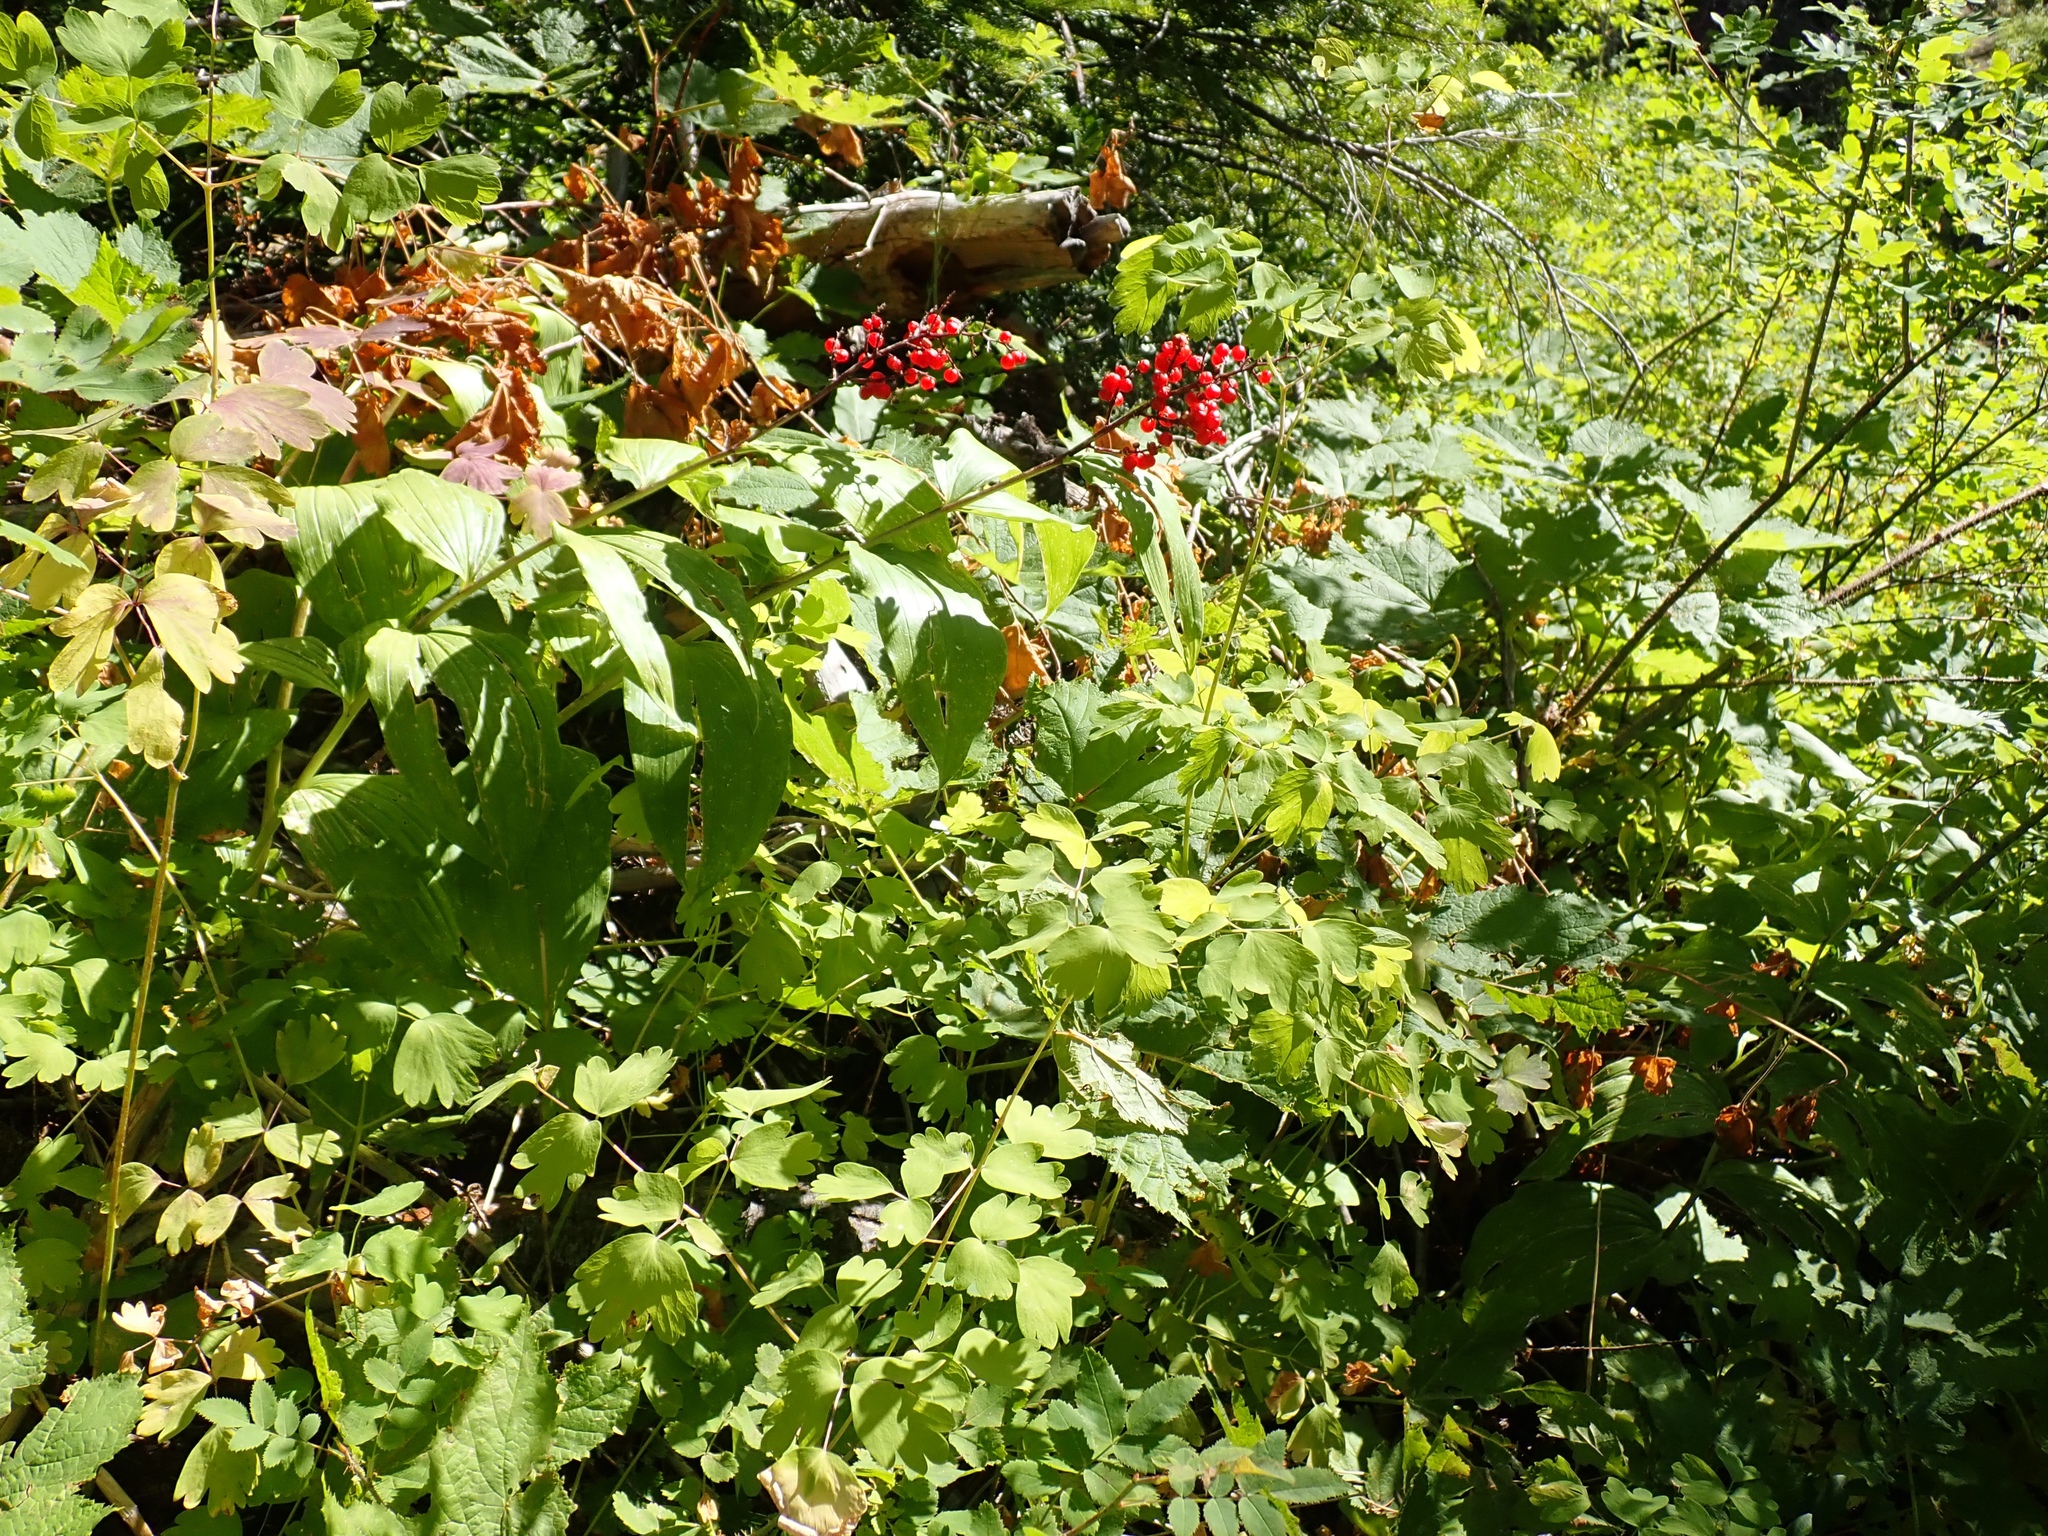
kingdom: Plantae
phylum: Tracheophyta
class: Liliopsida
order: Asparagales
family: Asparagaceae
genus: Maianthemum
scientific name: Maianthemum racemosum
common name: False spikenard
